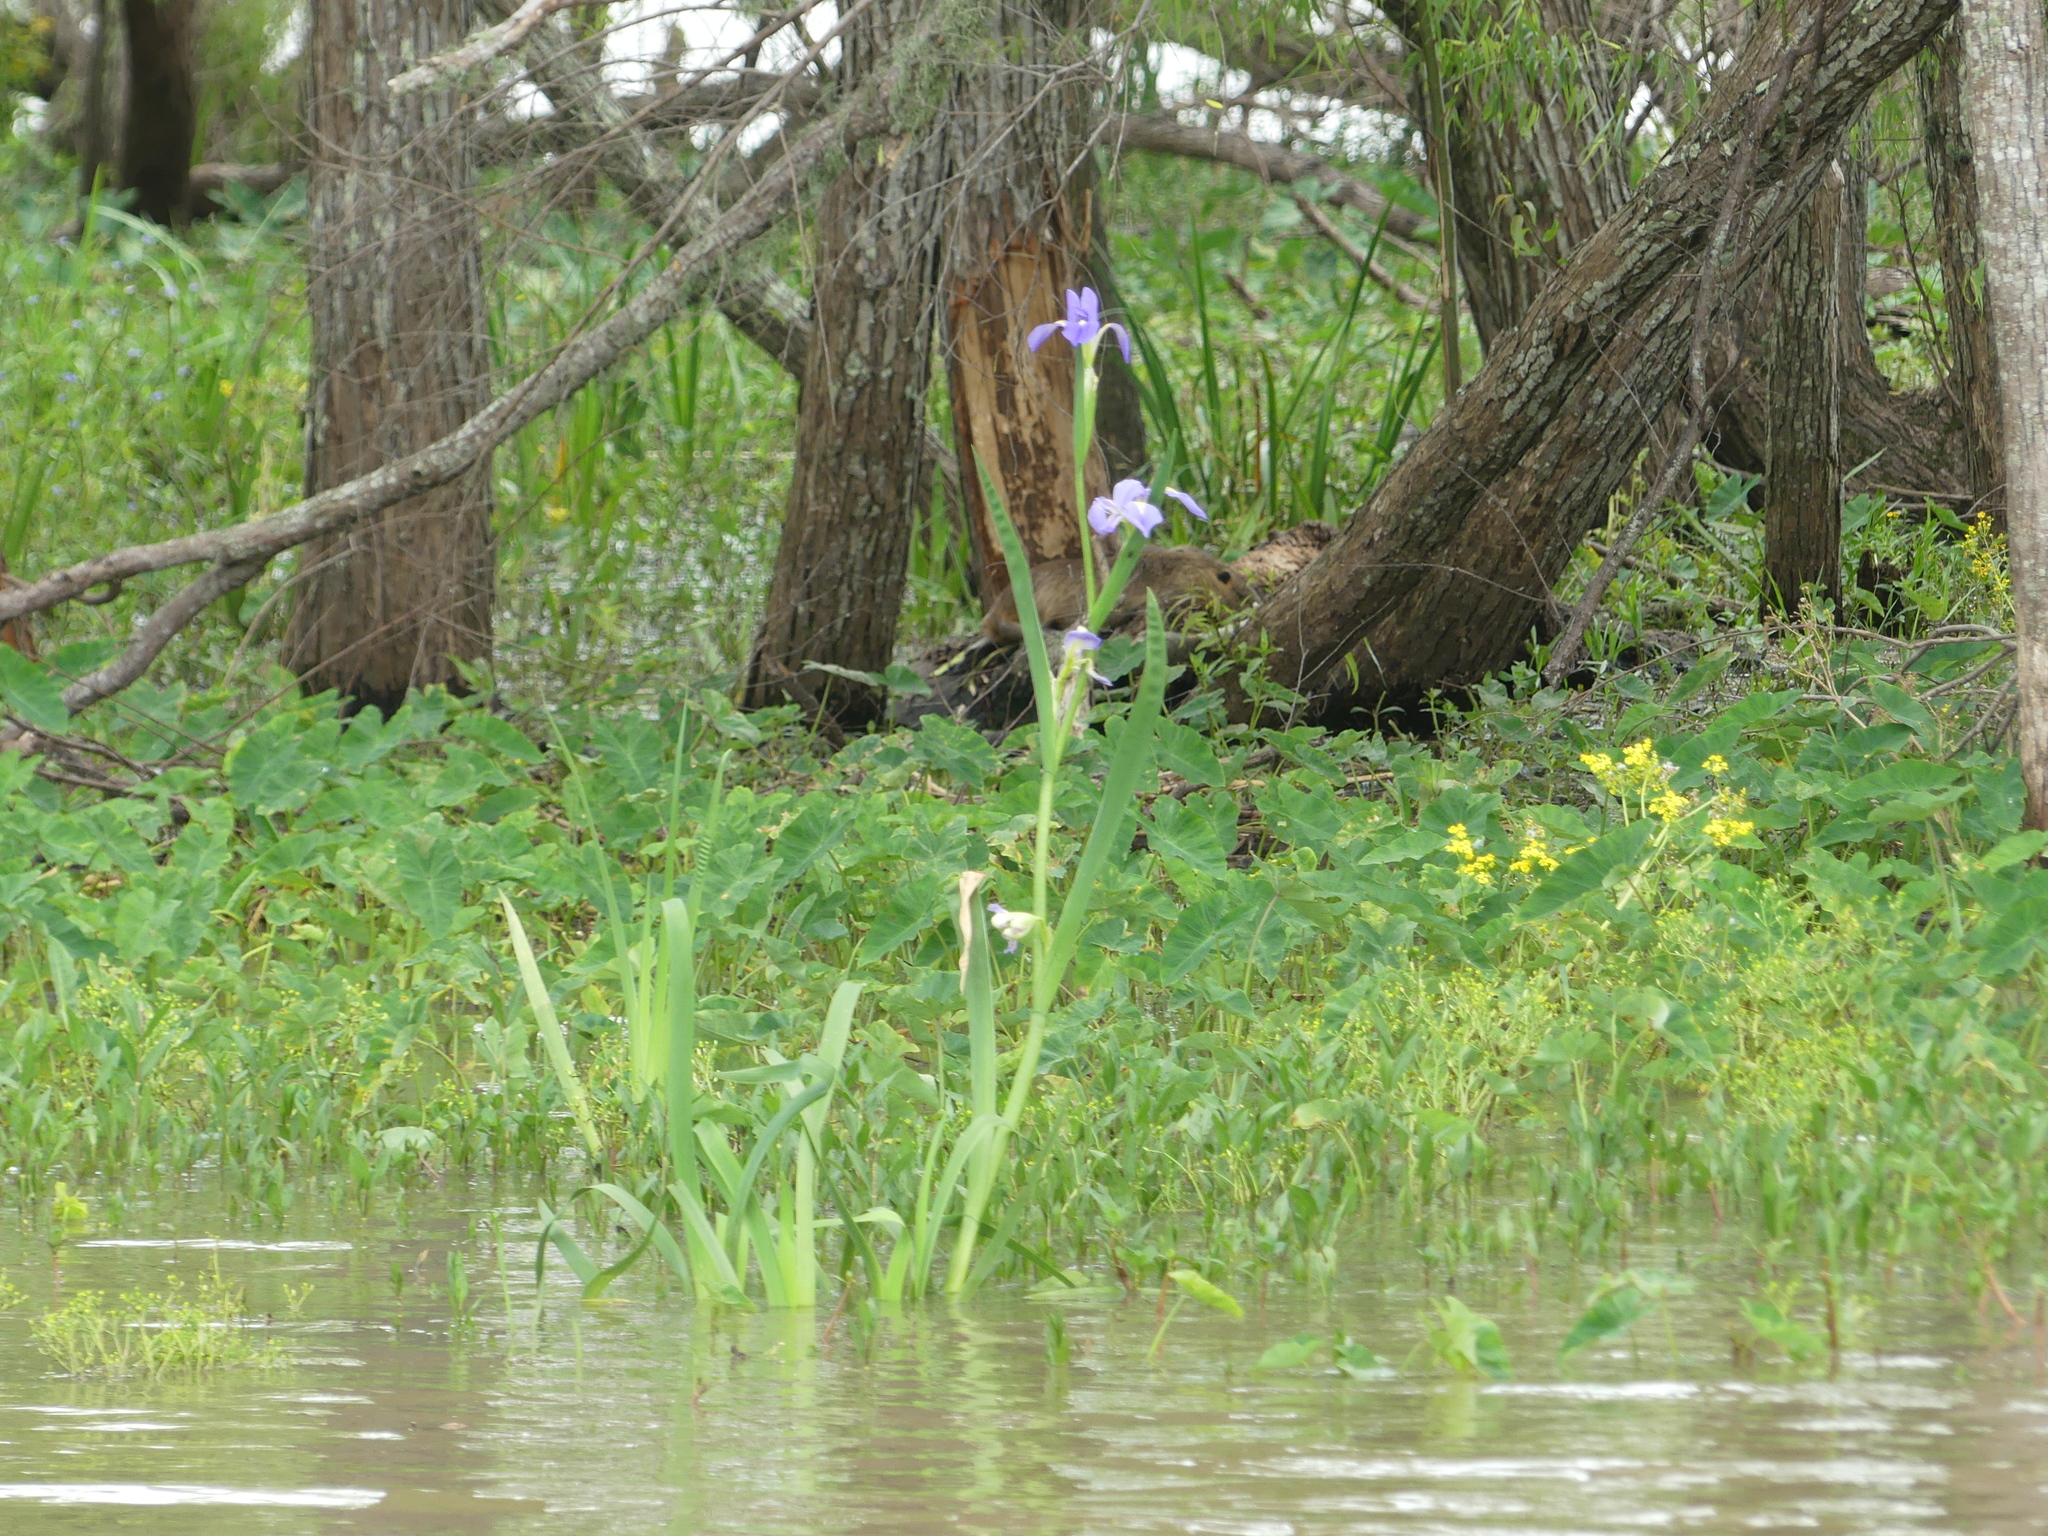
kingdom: Plantae
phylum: Tracheophyta
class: Liliopsida
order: Asparagales
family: Iridaceae
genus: Iris
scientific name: Iris giganticaerulea
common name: Giant blue iris
